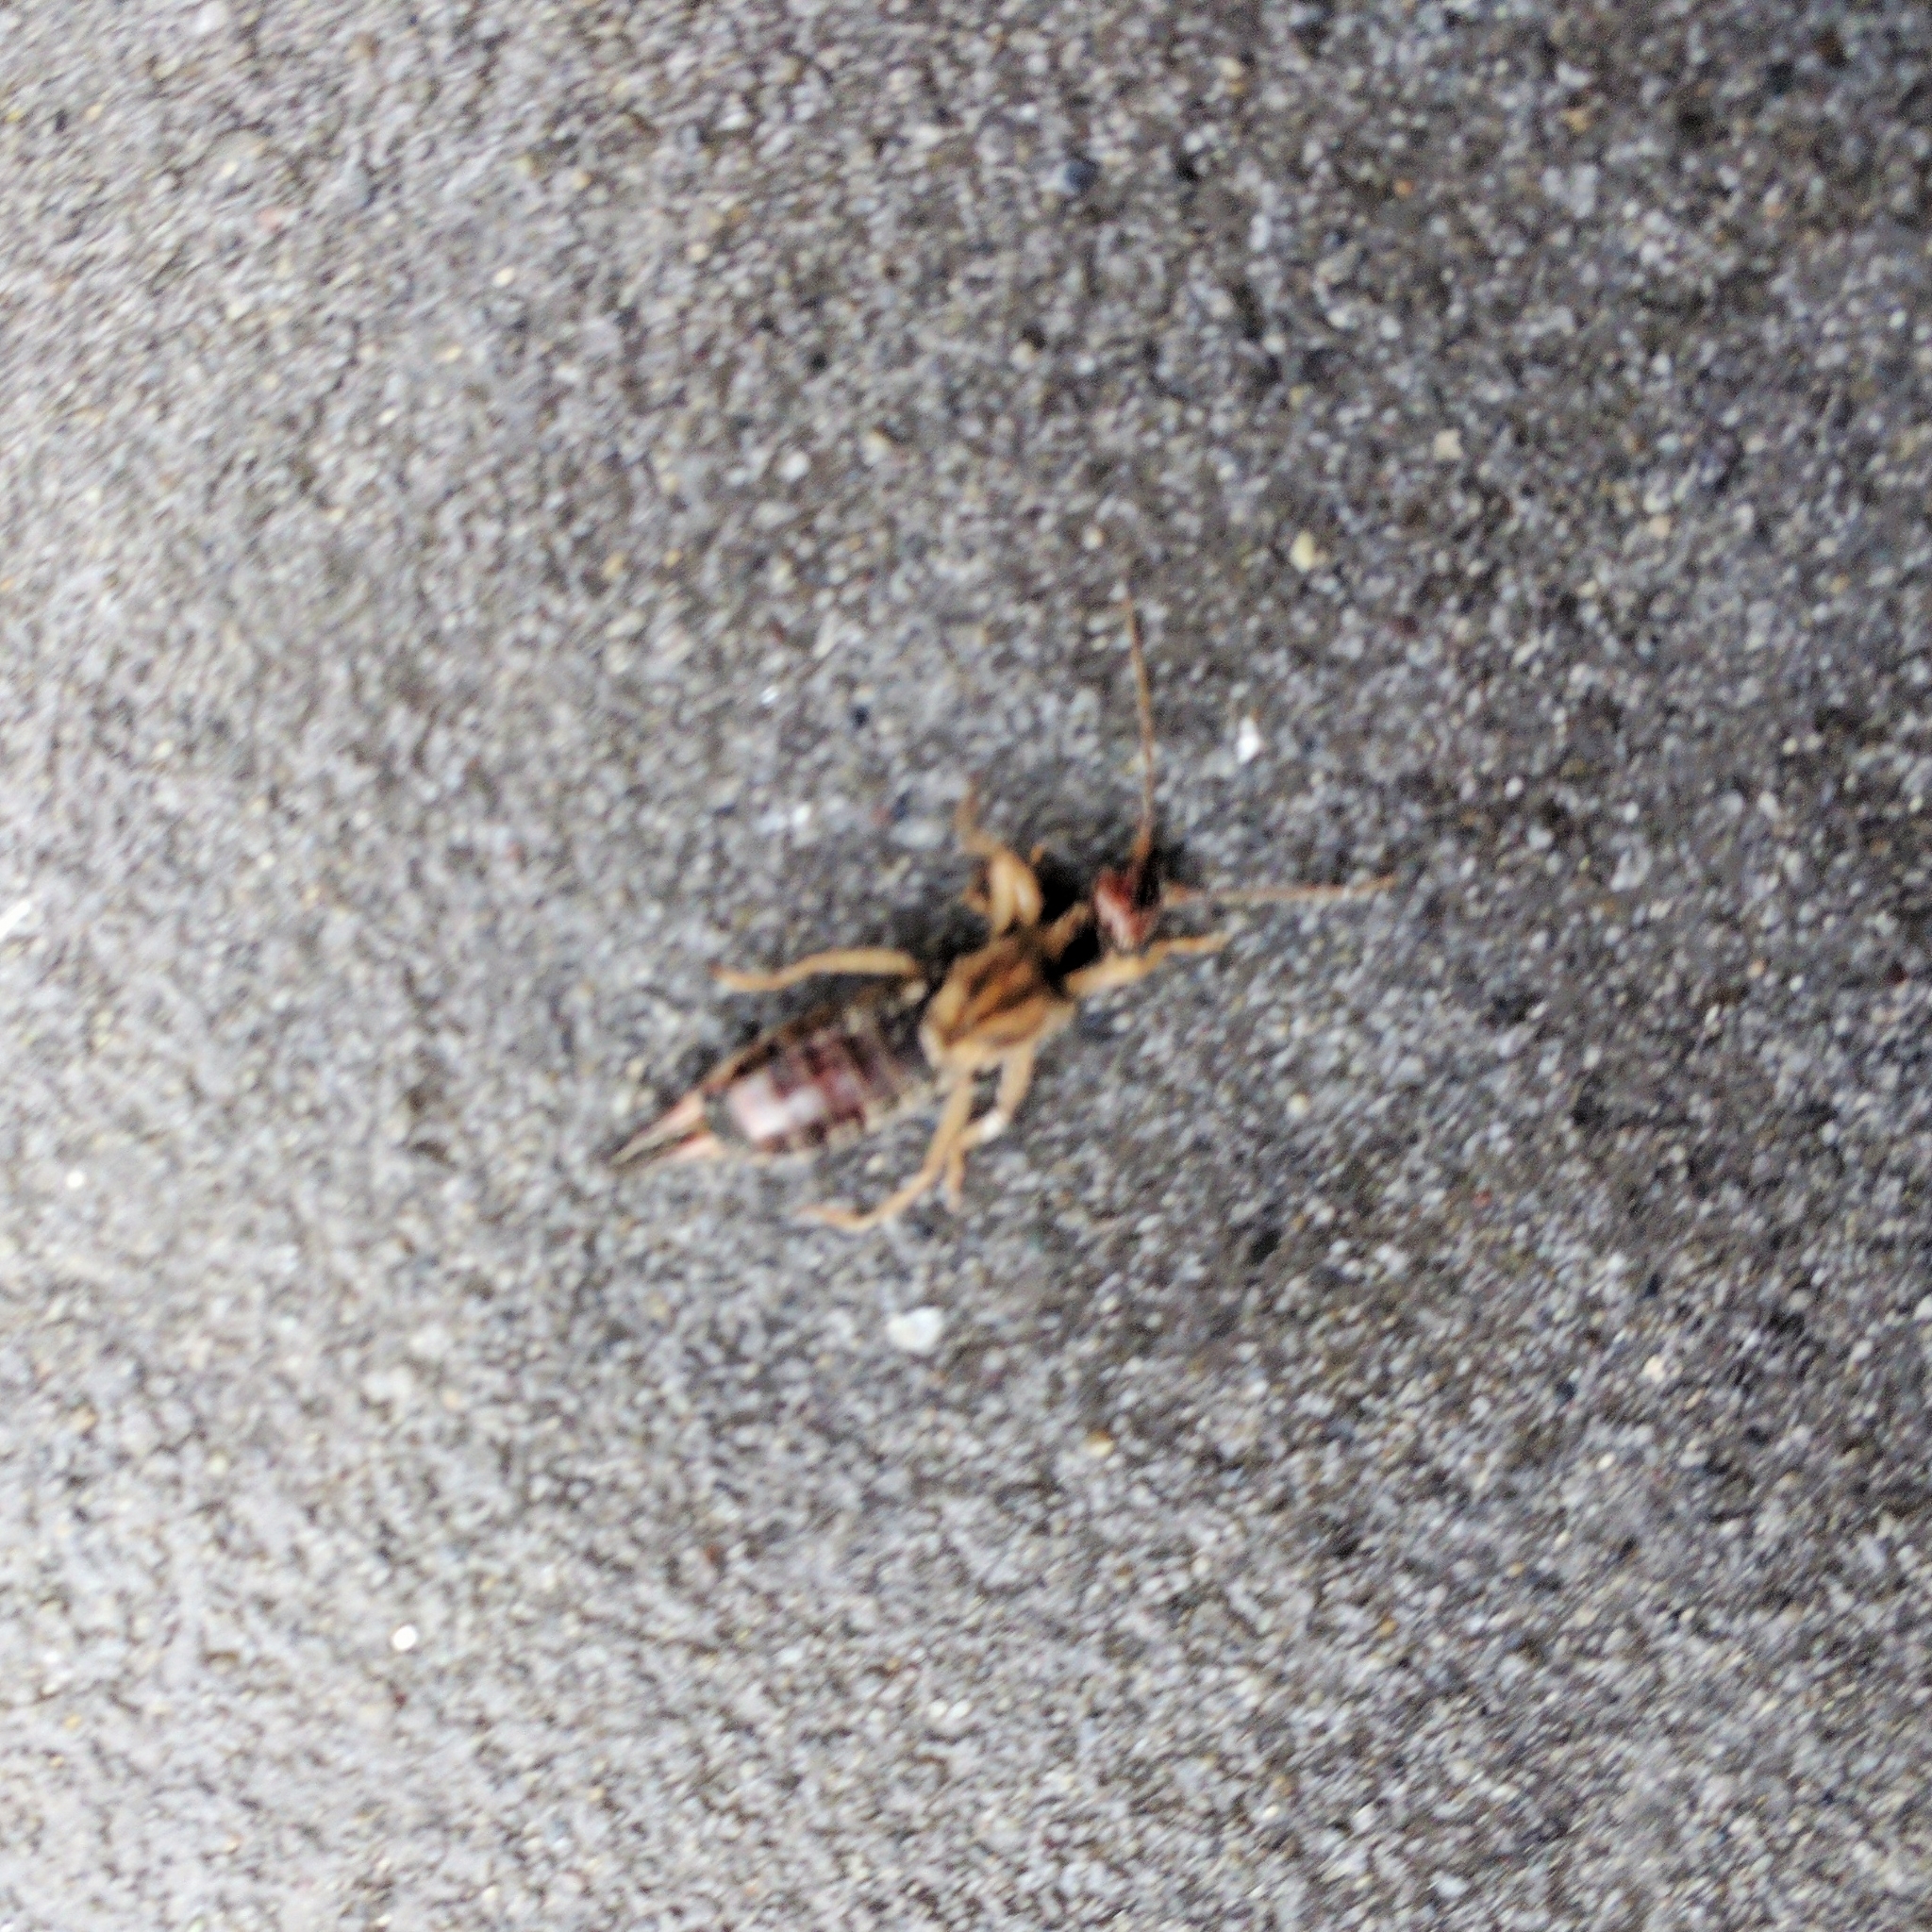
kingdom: Animalia
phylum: Arthropoda
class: Insecta
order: Dermaptera
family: Forficulidae
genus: Forficula
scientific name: Forficula
